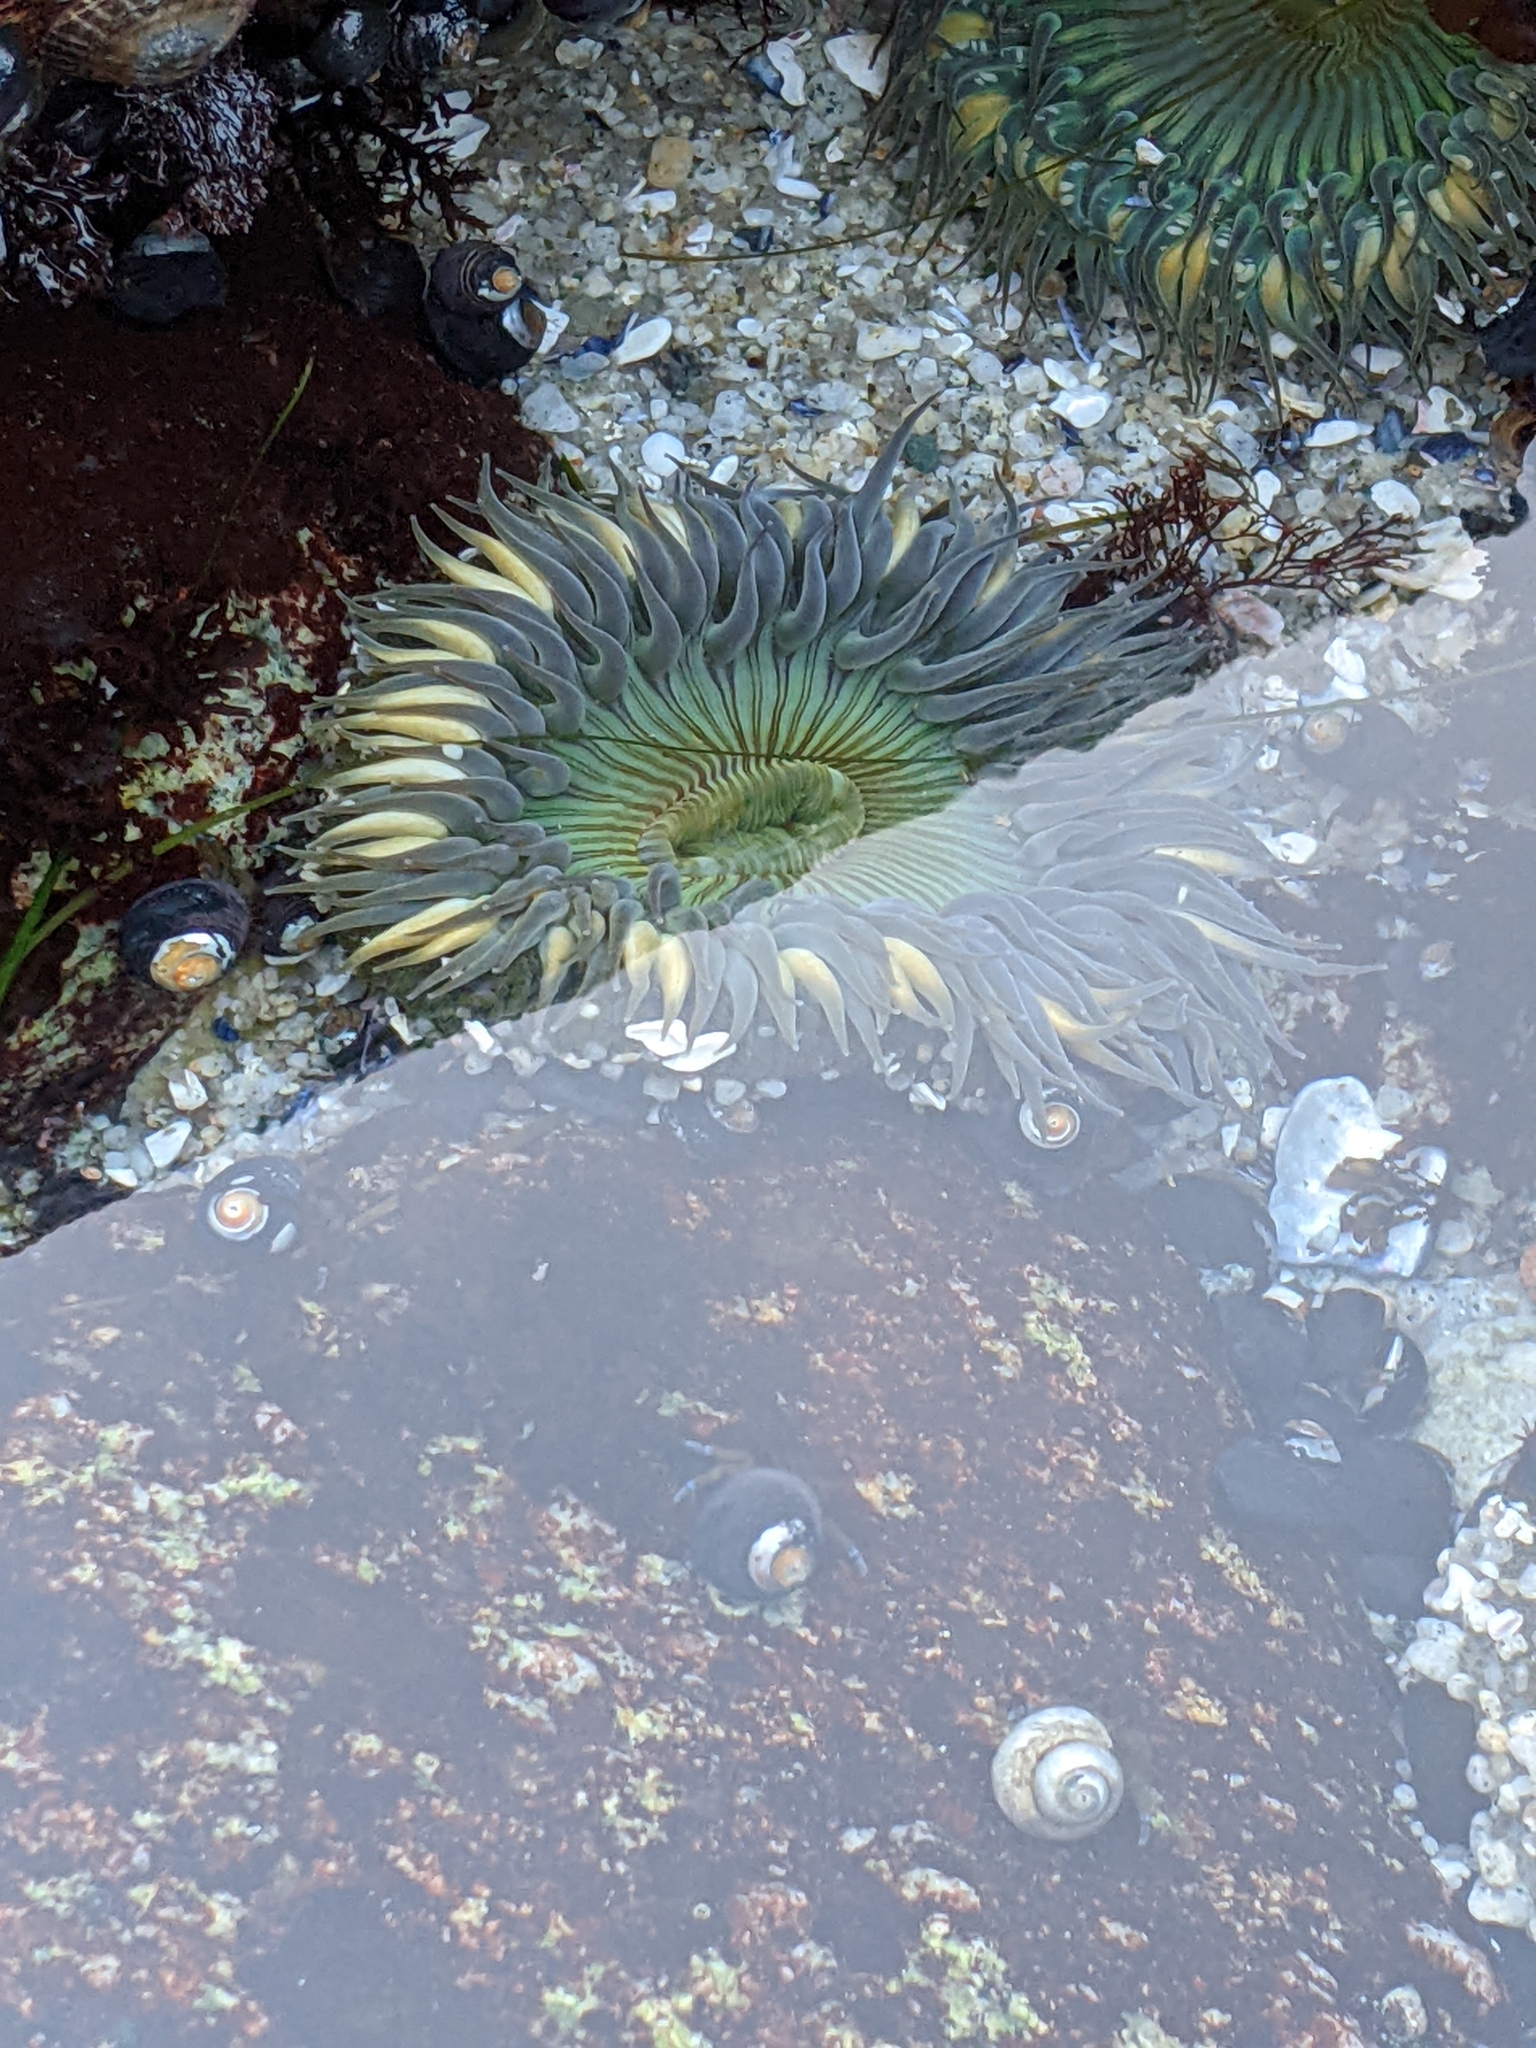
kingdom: Animalia
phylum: Cnidaria
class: Anthozoa
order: Actiniaria
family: Actiniidae
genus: Anthopleura
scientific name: Anthopleura sola
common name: Sun anemone
